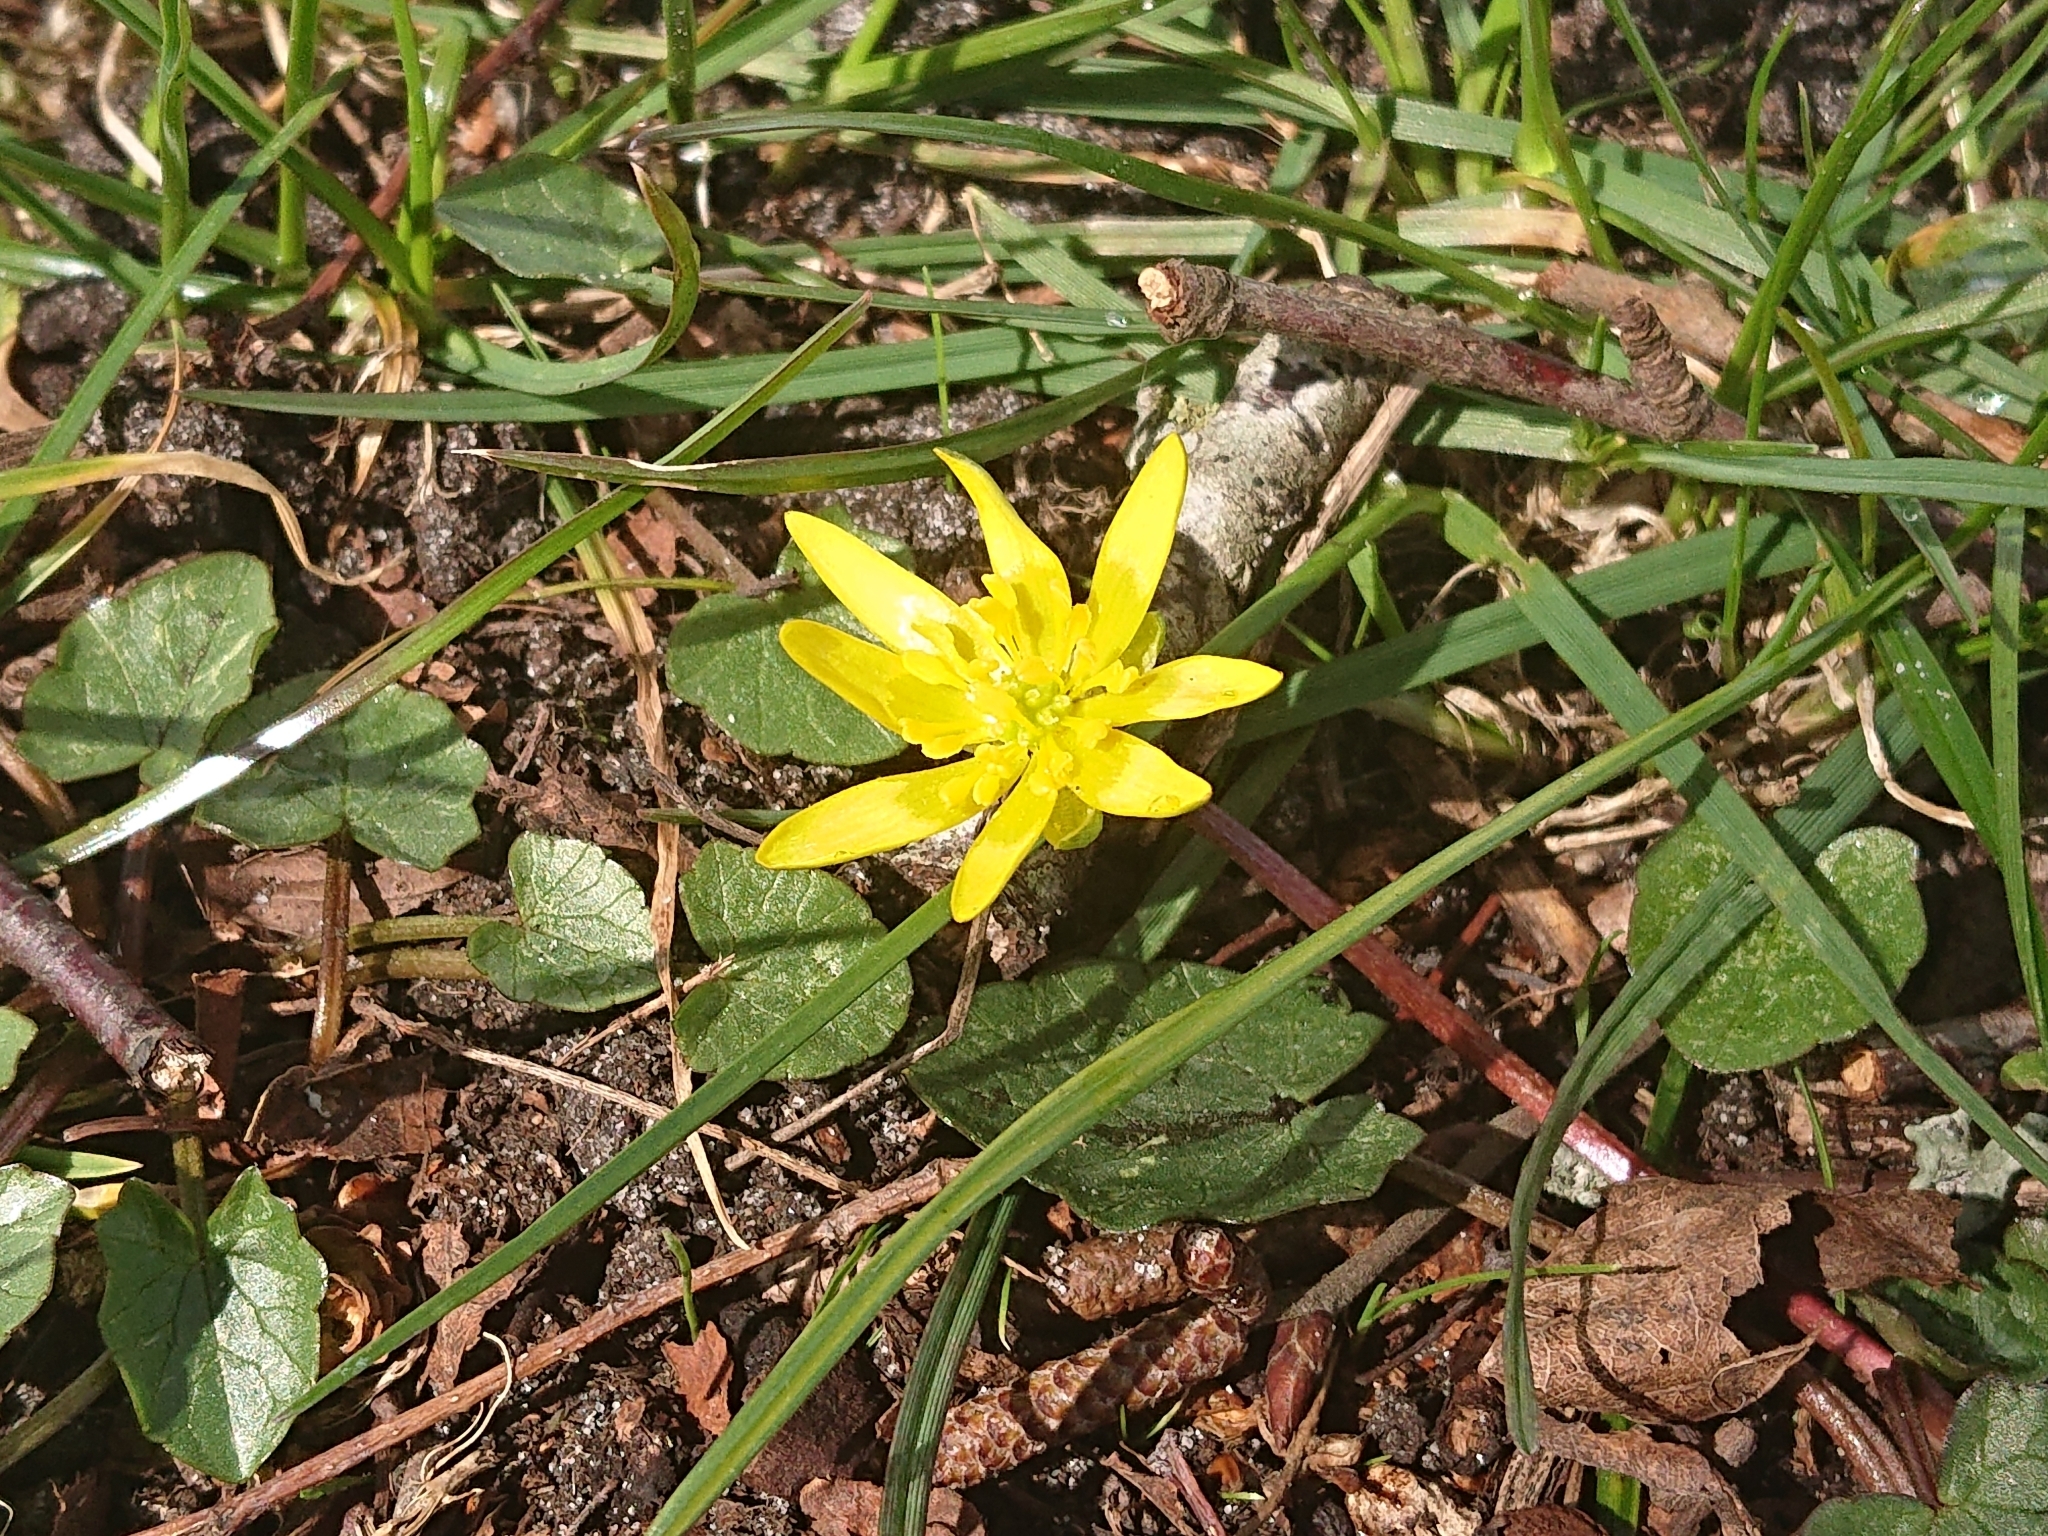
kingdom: Plantae
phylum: Tracheophyta
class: Magnoliopsida
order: Ranunculales
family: Ranunculaceae
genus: Ficaria
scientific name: Ficaria verna
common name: Lesser celandine
